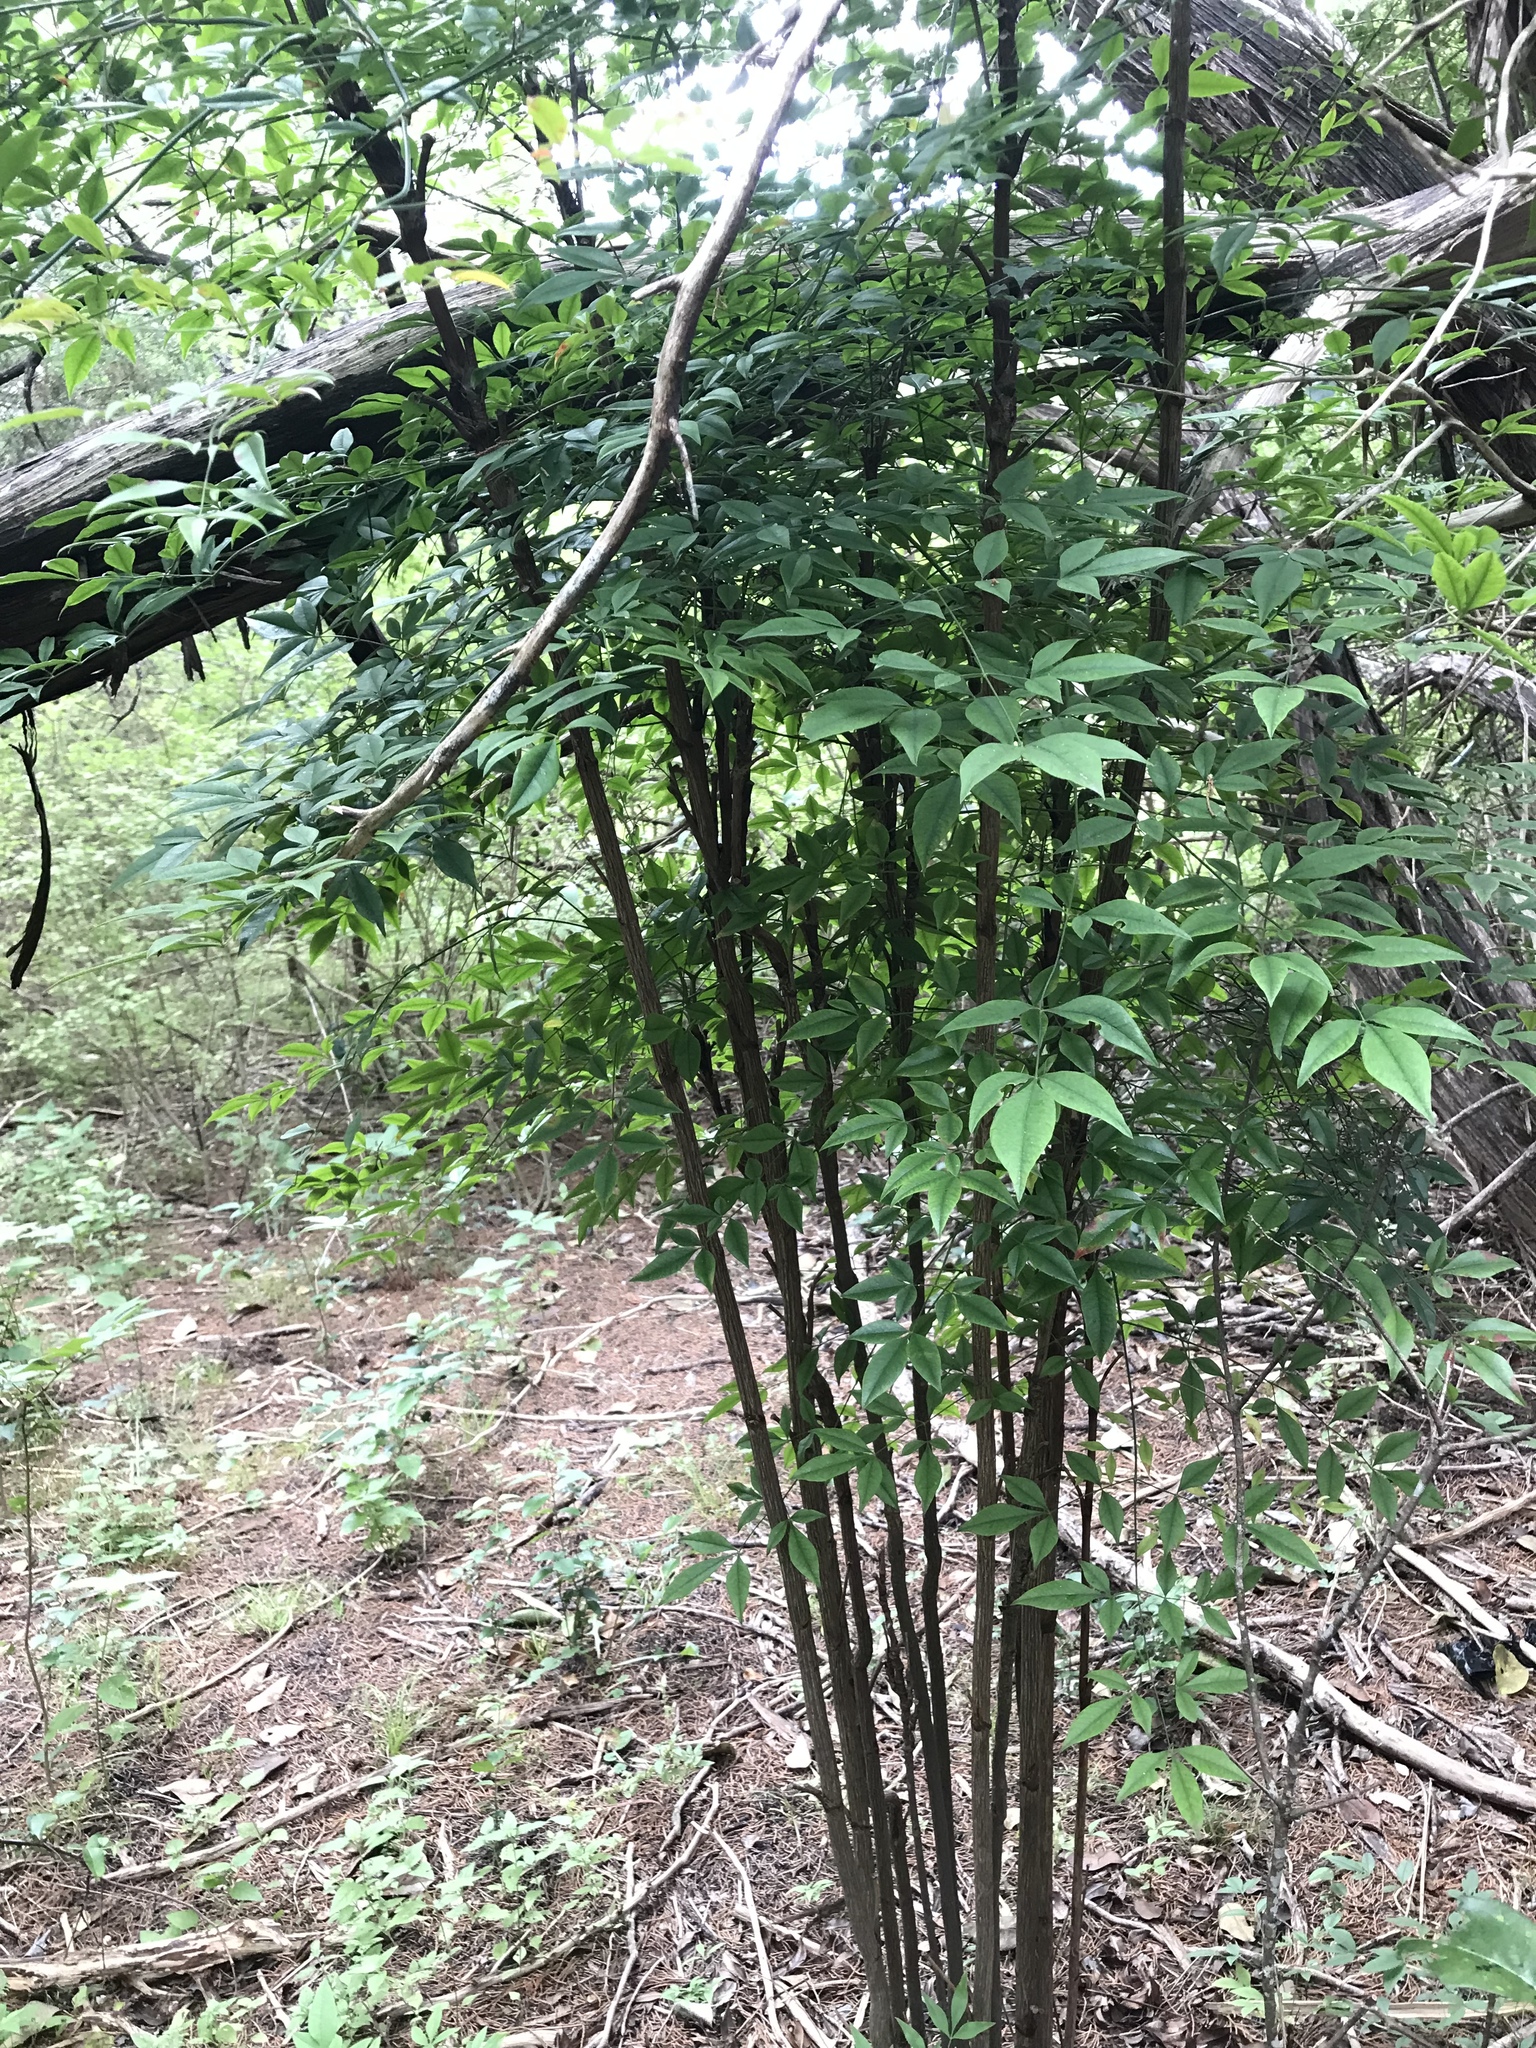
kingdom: Plantae
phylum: Tracheophyta
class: Magnoliopsida
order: Ranunculales
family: Berberidaceae
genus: Nandina
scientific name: Nandina domestica
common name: Sacred bamboo
